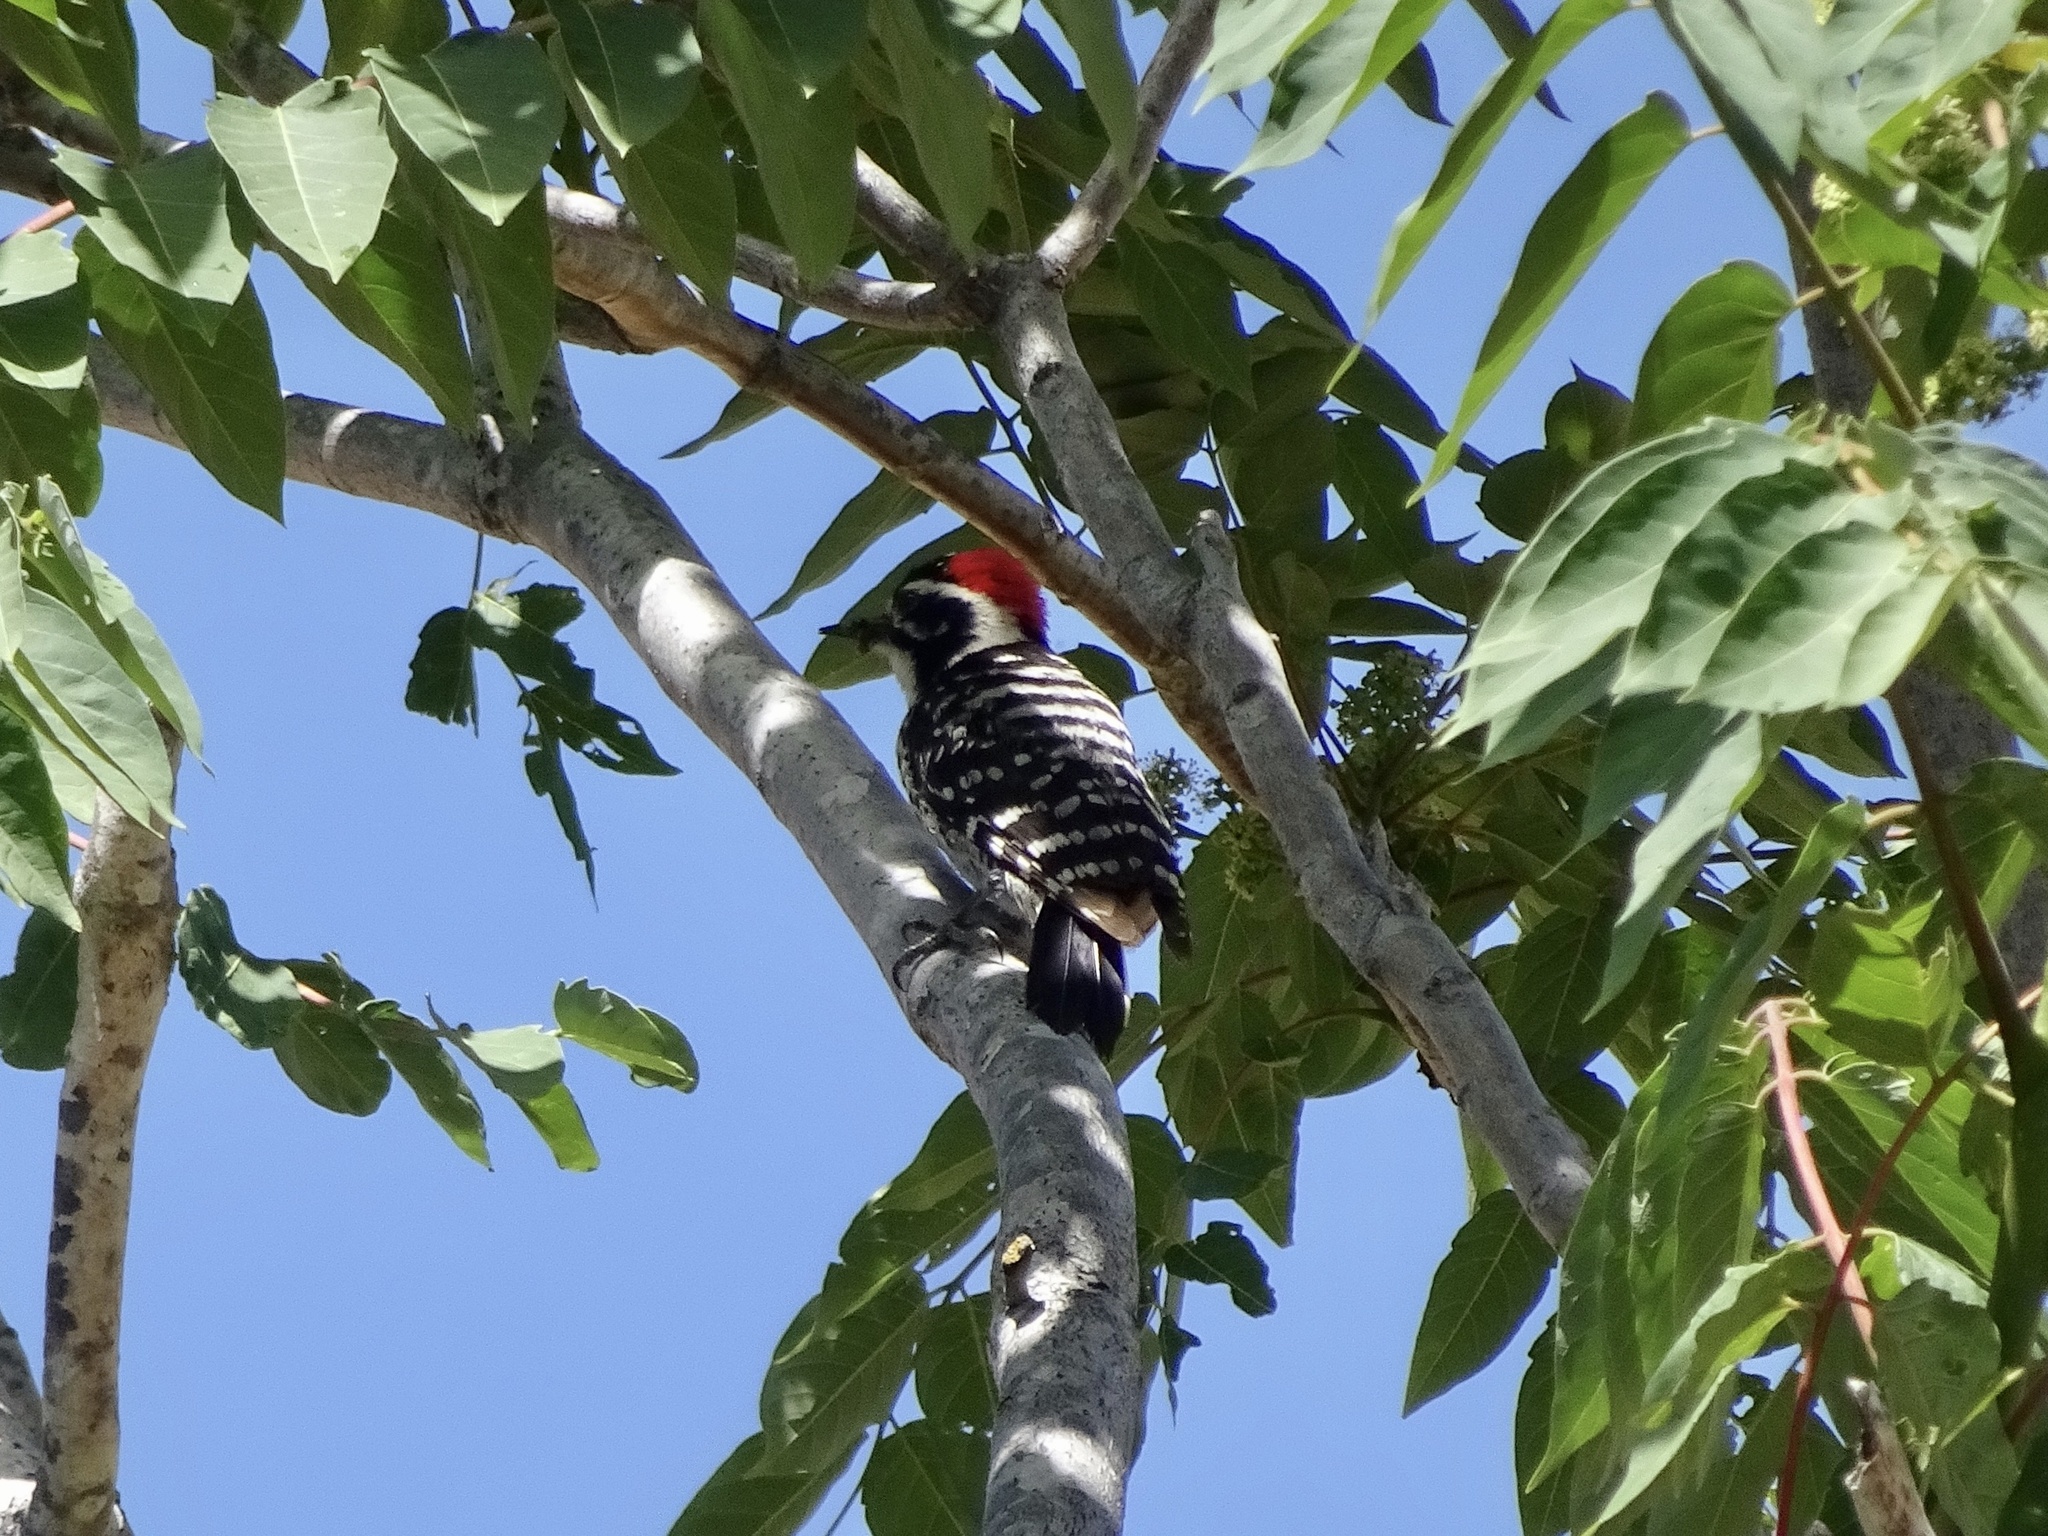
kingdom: Animalia
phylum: Chordata
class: Aves
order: Piciformes
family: Picidae
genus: Dryobates
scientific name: Dryobates nuttallii
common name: Nuttall's woodpecker
